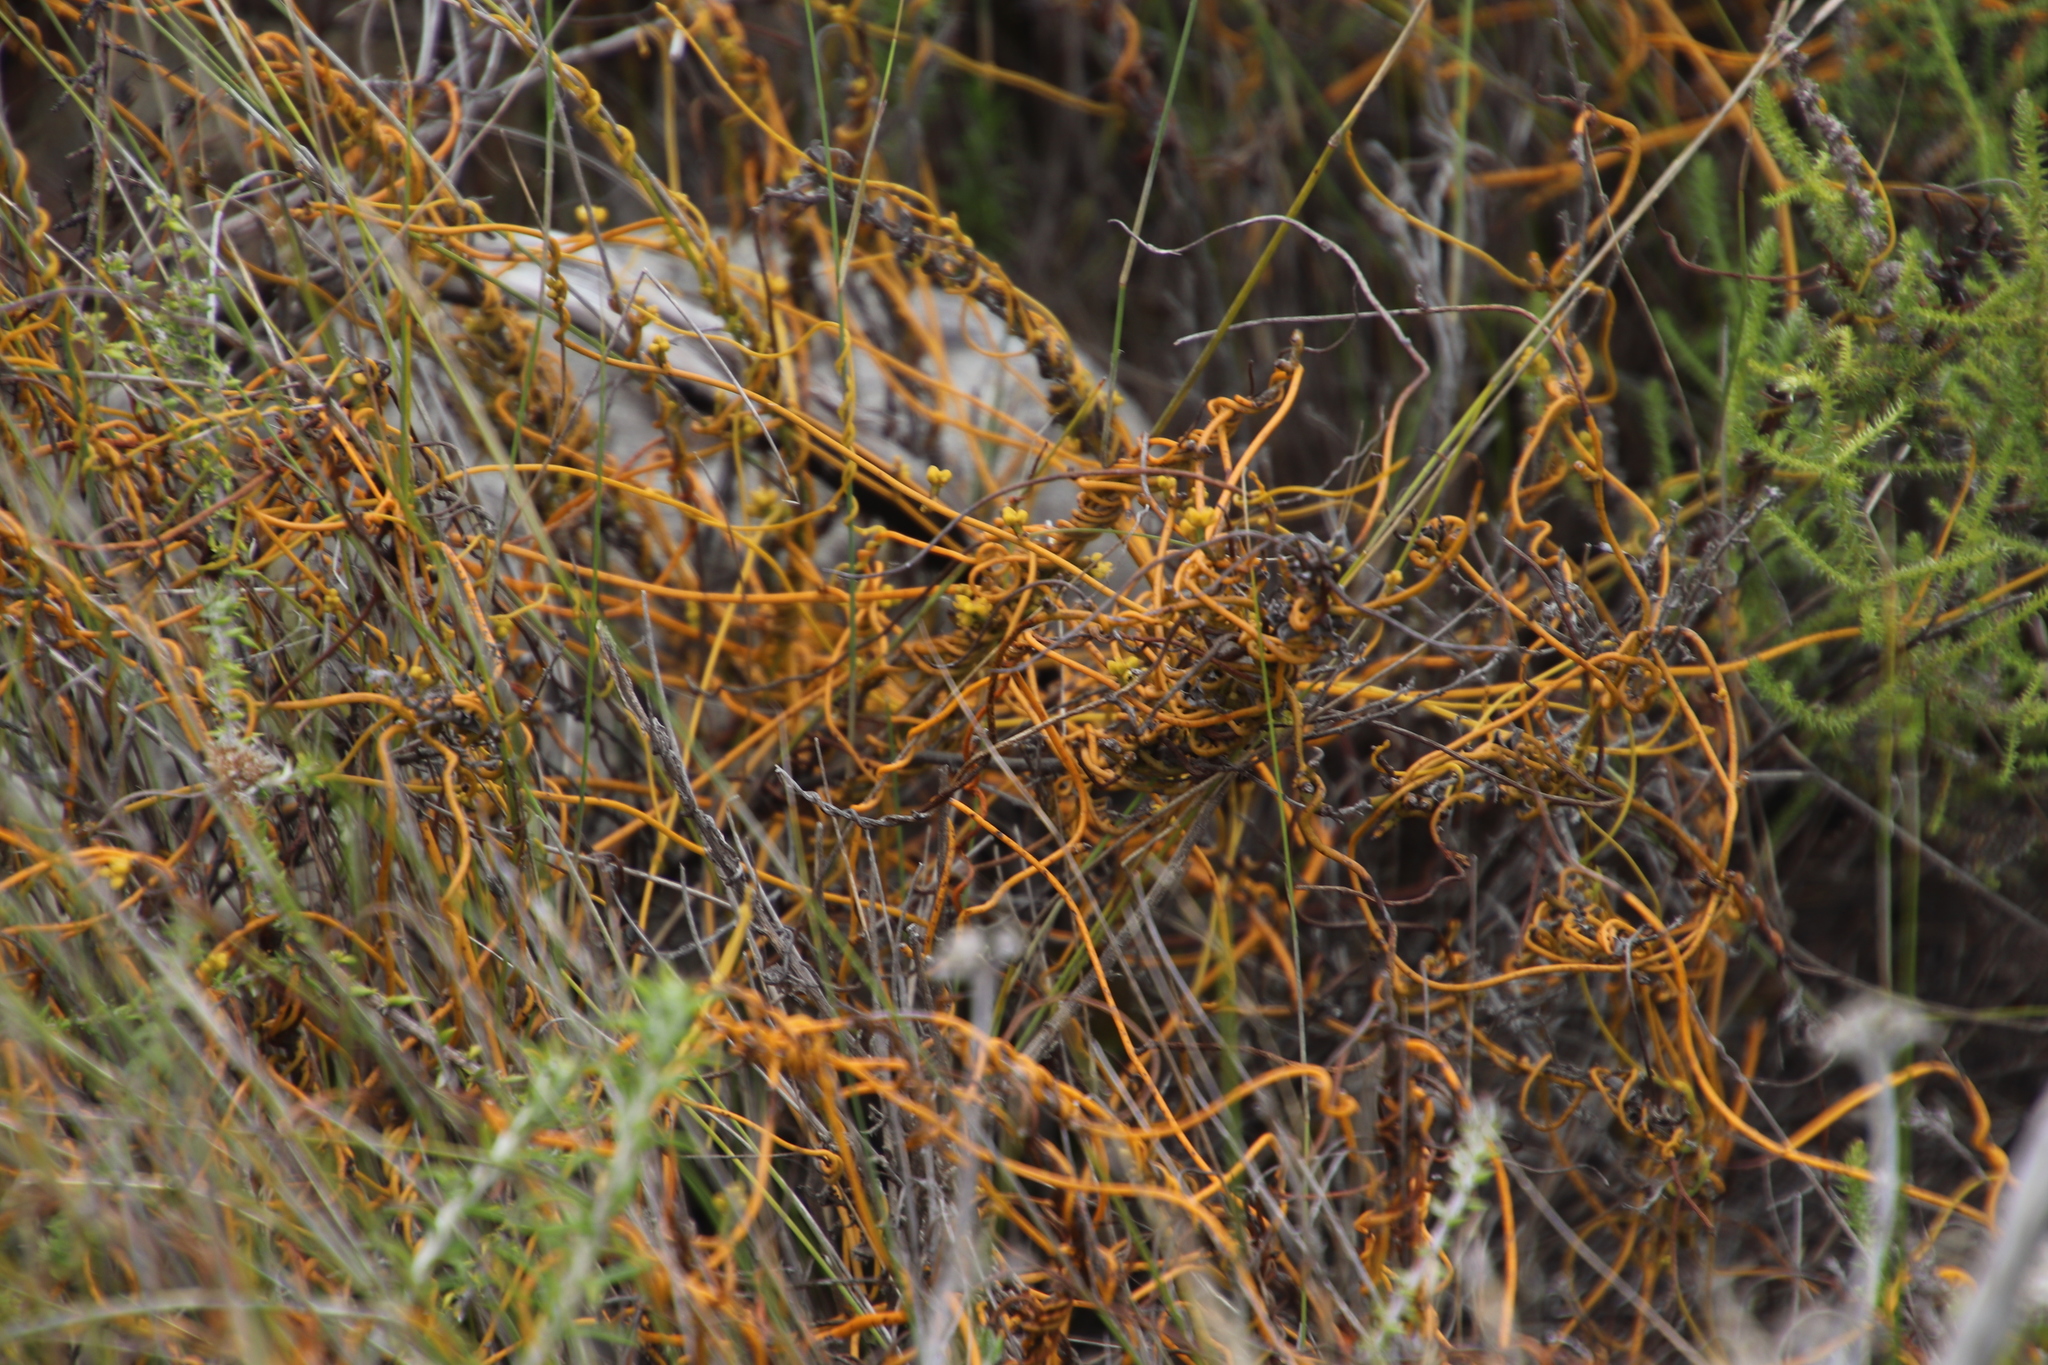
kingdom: Plantae
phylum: Tracheophyta
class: Magnoliopsida
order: Laurales
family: Lauraceae
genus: Cassytha
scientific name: Cassytha ciliolata
